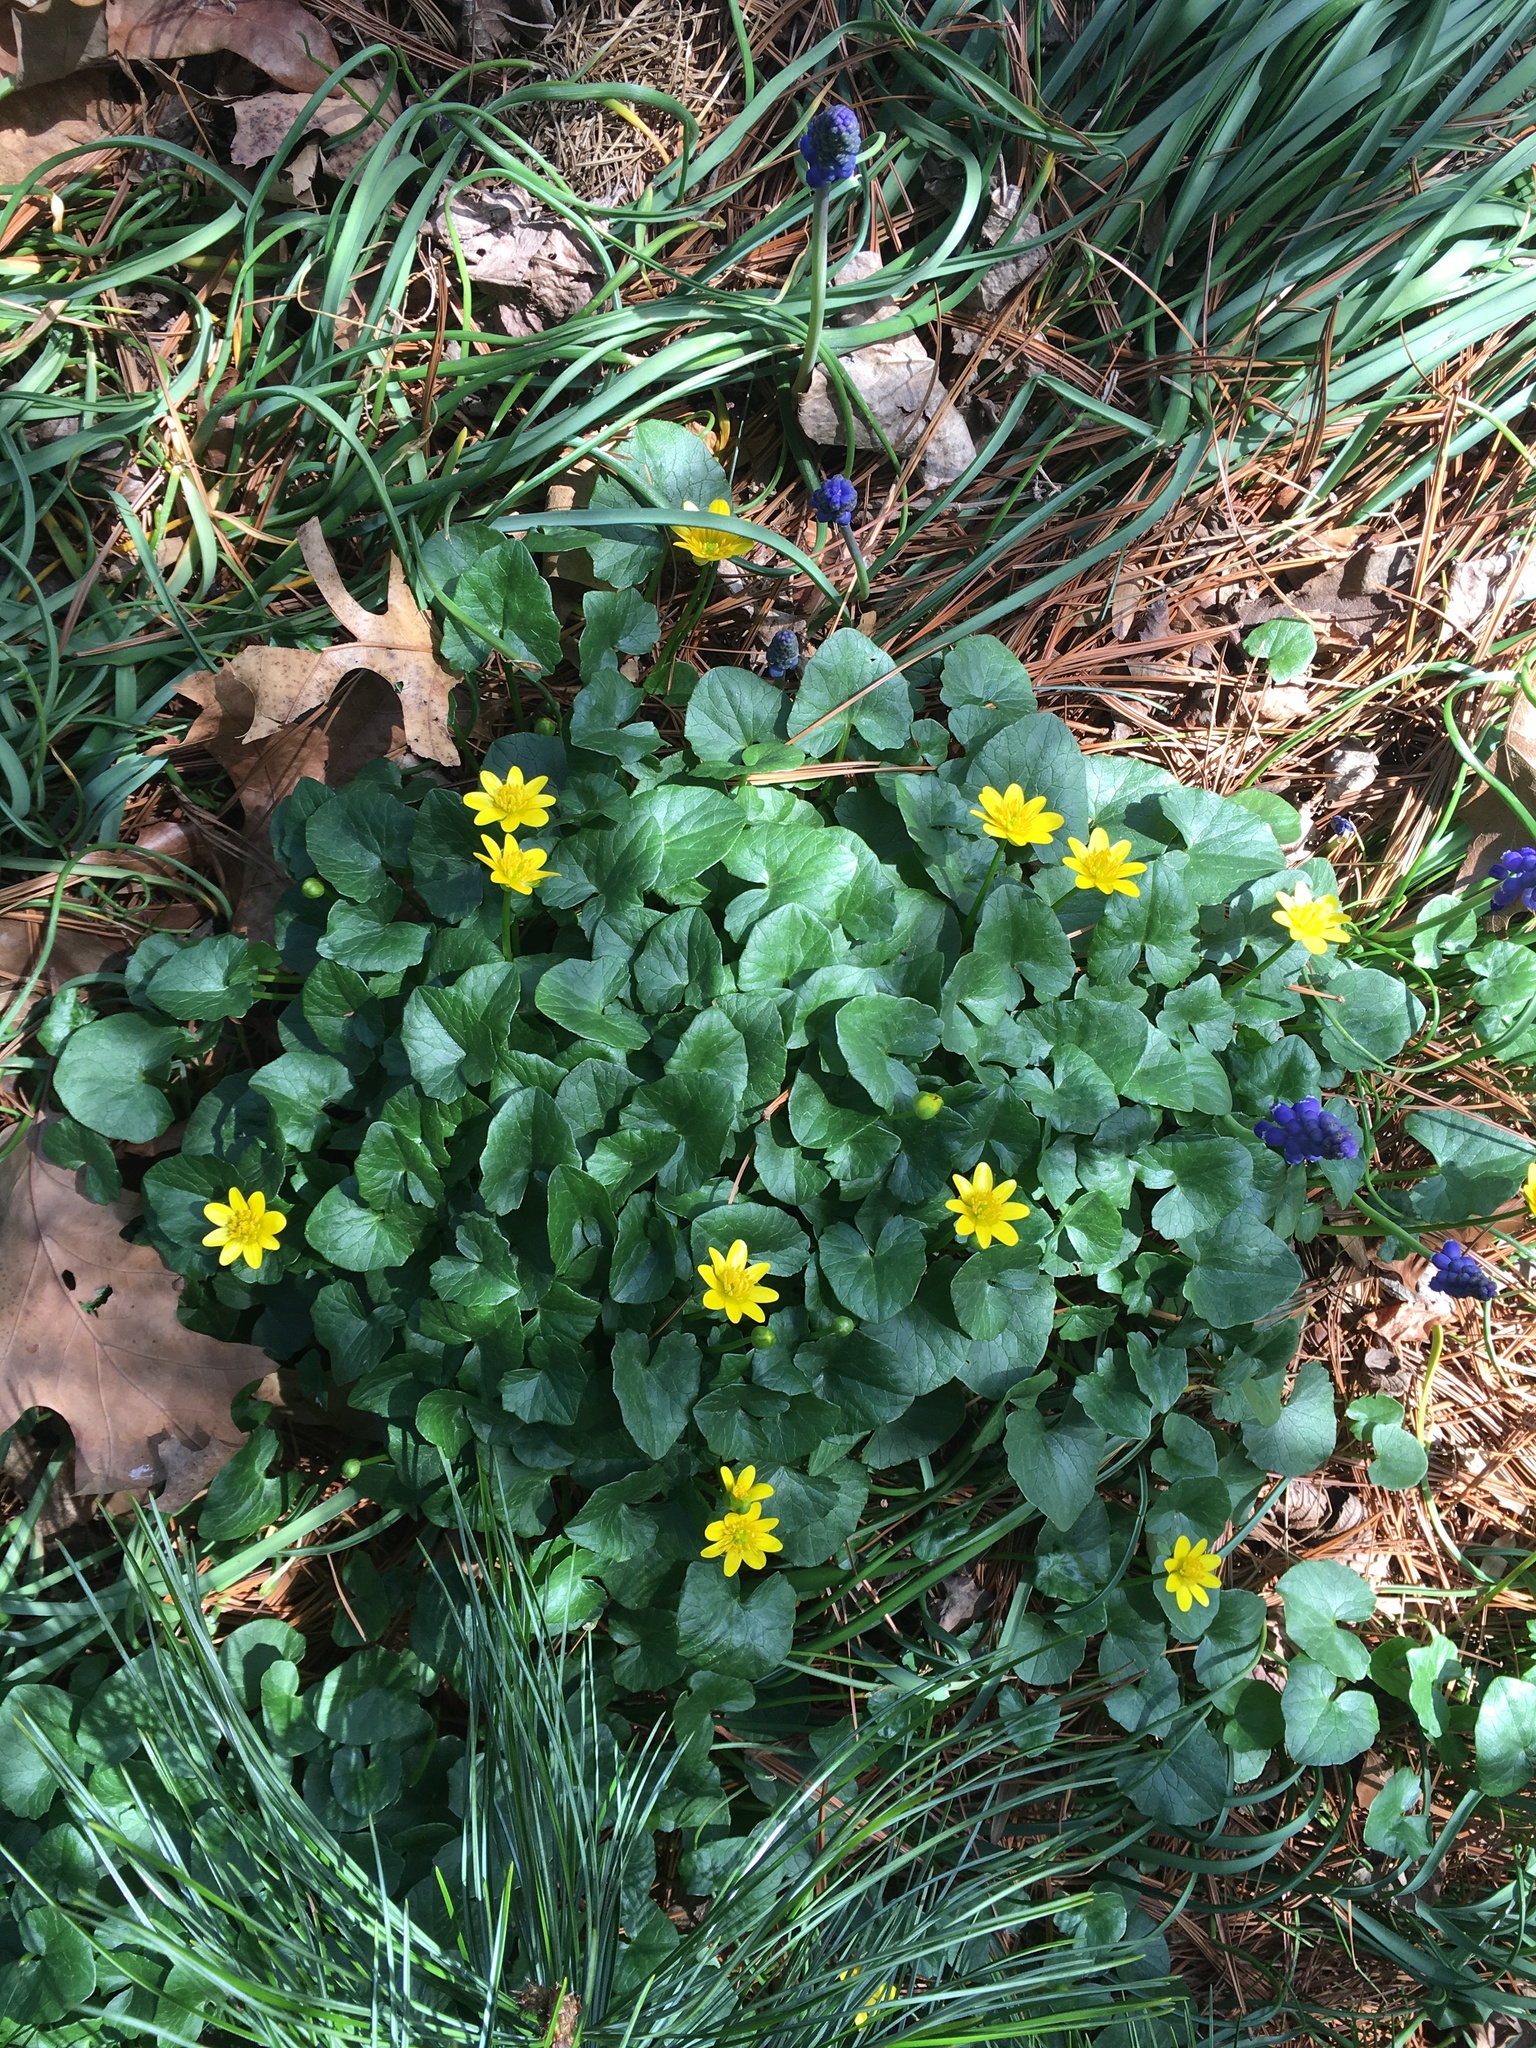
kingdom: Plantae
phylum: Tracheophyta
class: Magnoliopsida
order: Ranunculales
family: Ranunculaceae
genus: Ficaria
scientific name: Ficaria verna
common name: Lesser celandine
